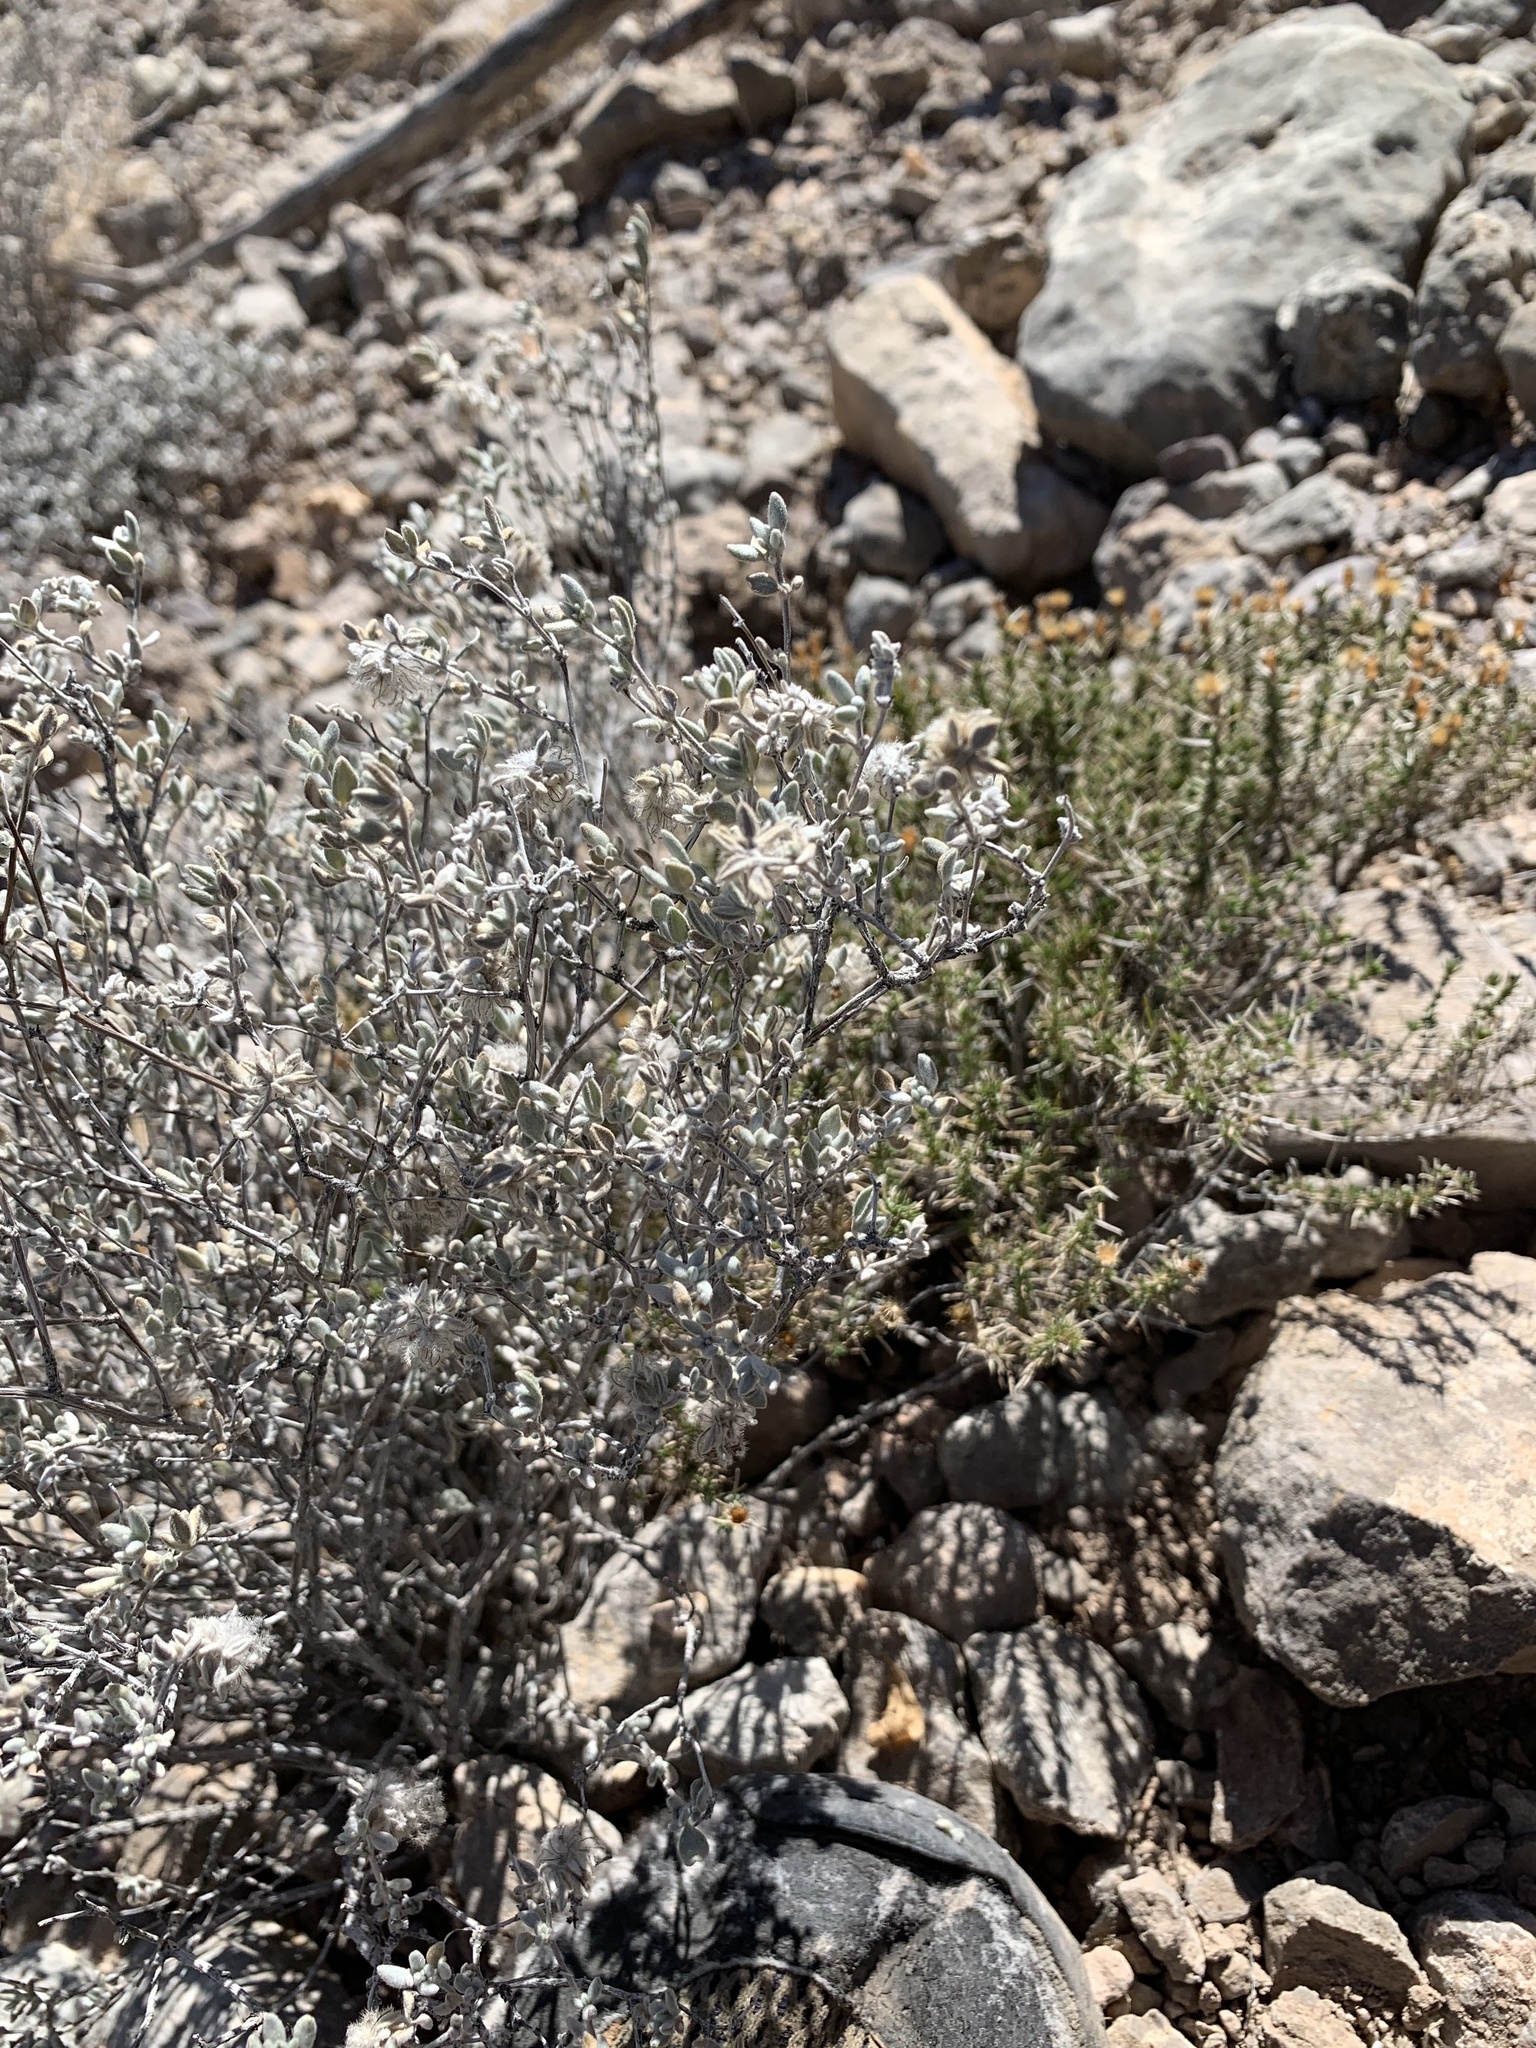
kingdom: Plantae
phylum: Tracheophyta
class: Magnoliopsida
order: Boraginales
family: Ehretiaceae
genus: Tiquilia
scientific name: Tiquilia greggii
